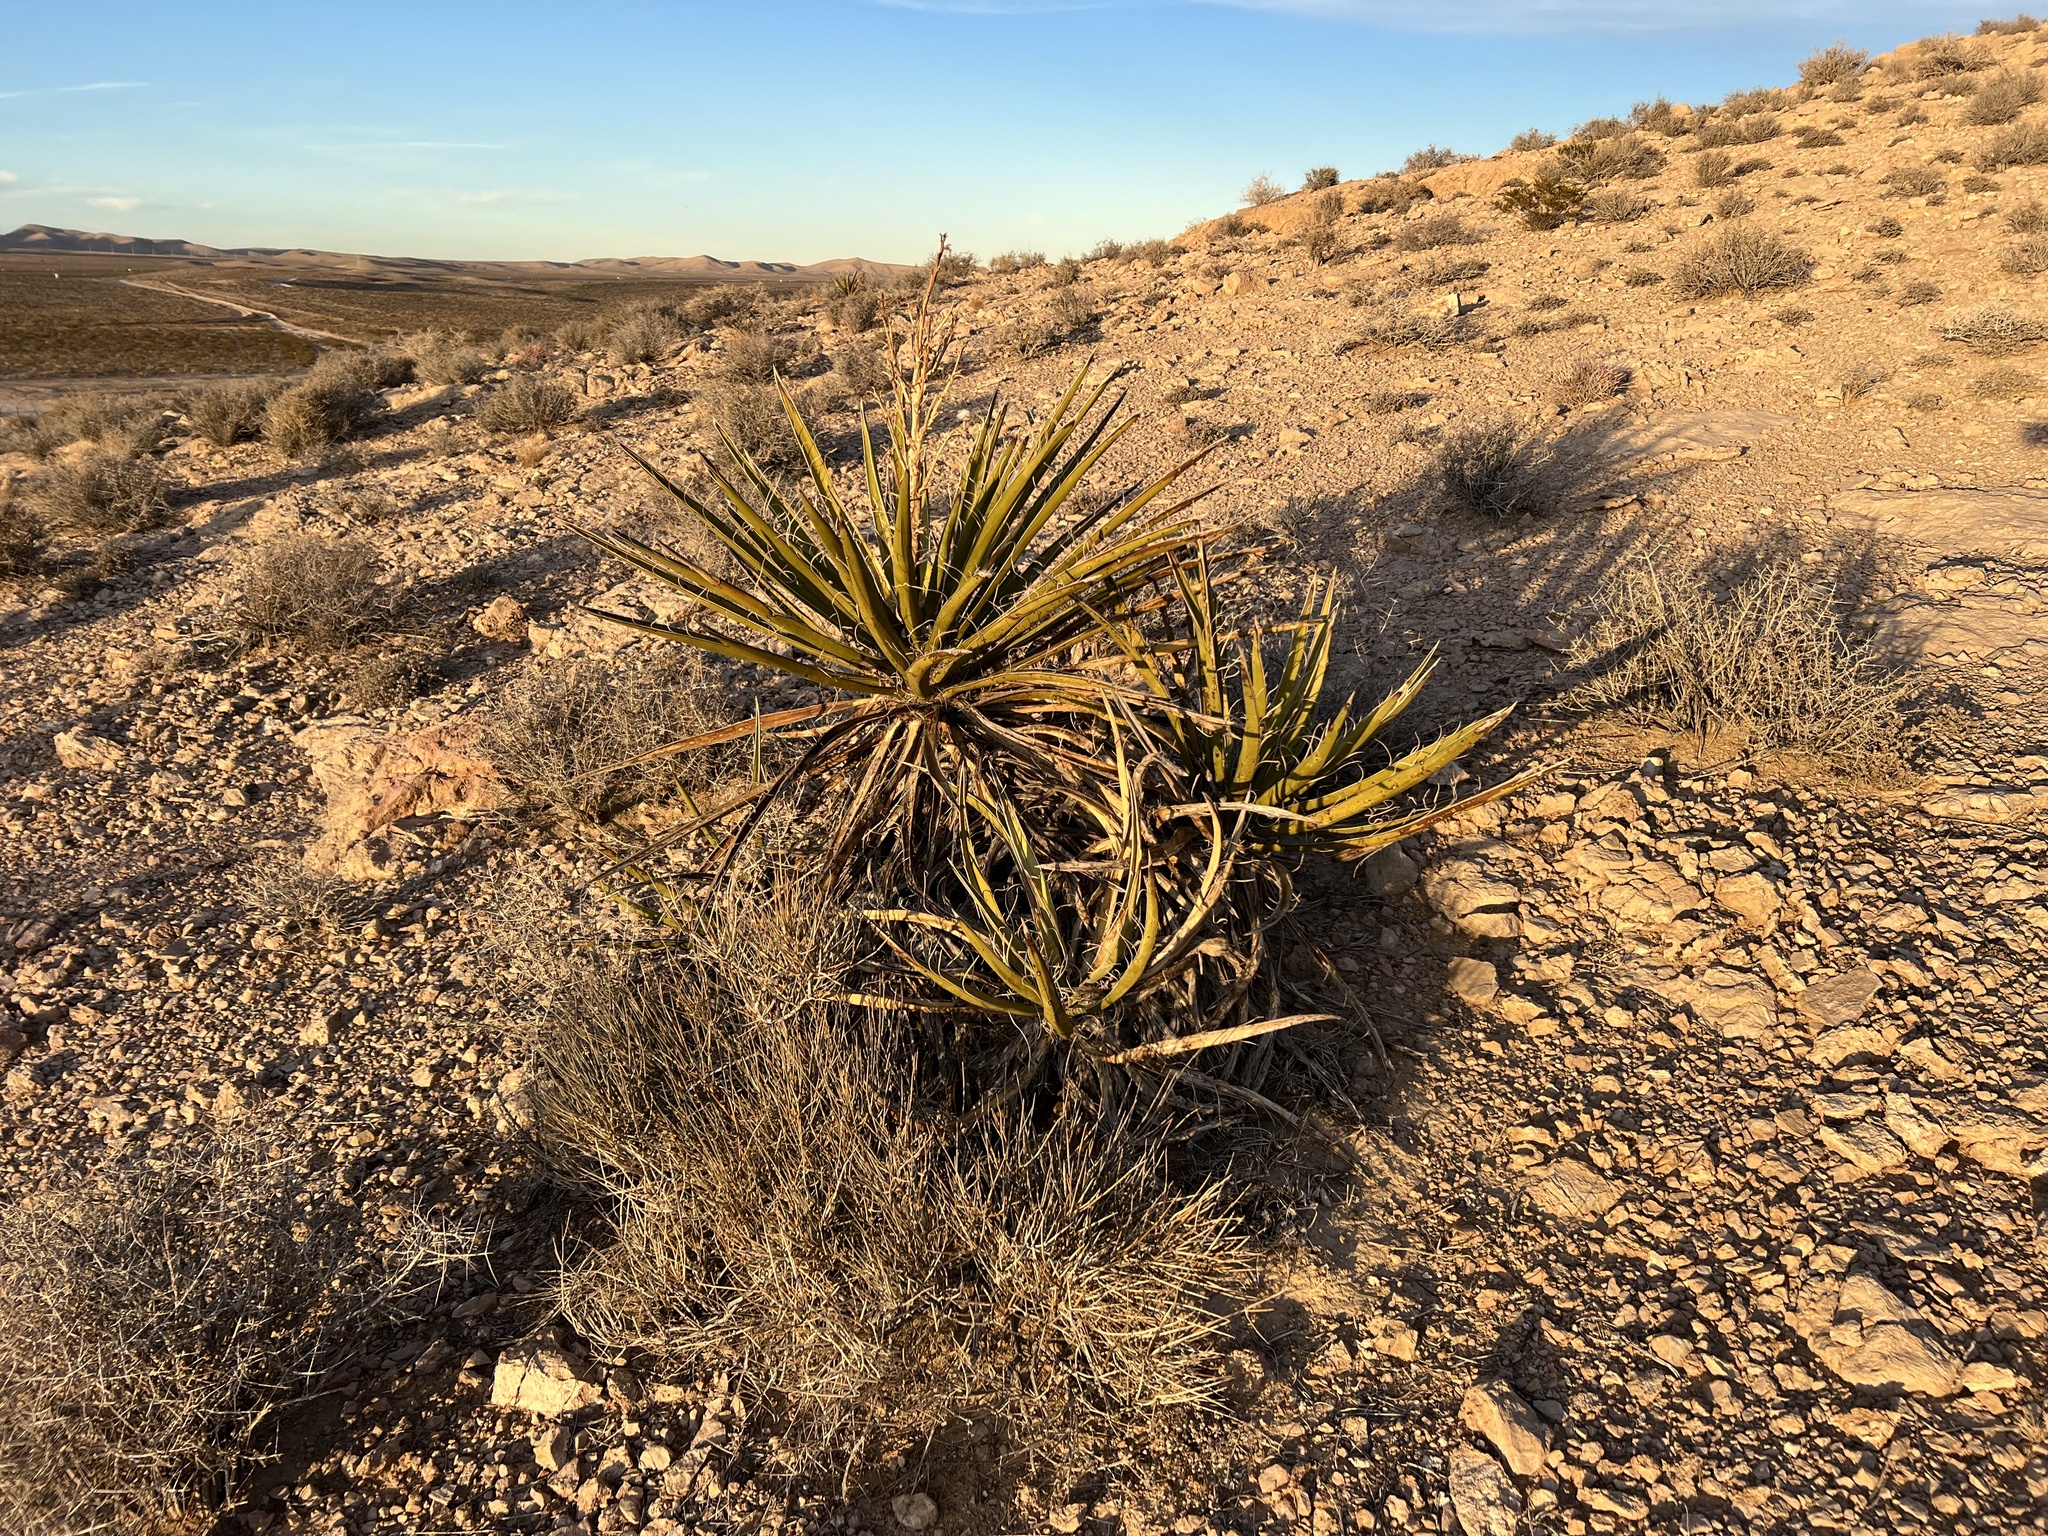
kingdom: Plantae
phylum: Tracheophyta
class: Liliopsida
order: Asparagales
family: Asparagaceae
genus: Yucca
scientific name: Yucca schidigera
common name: Mojave yucca
